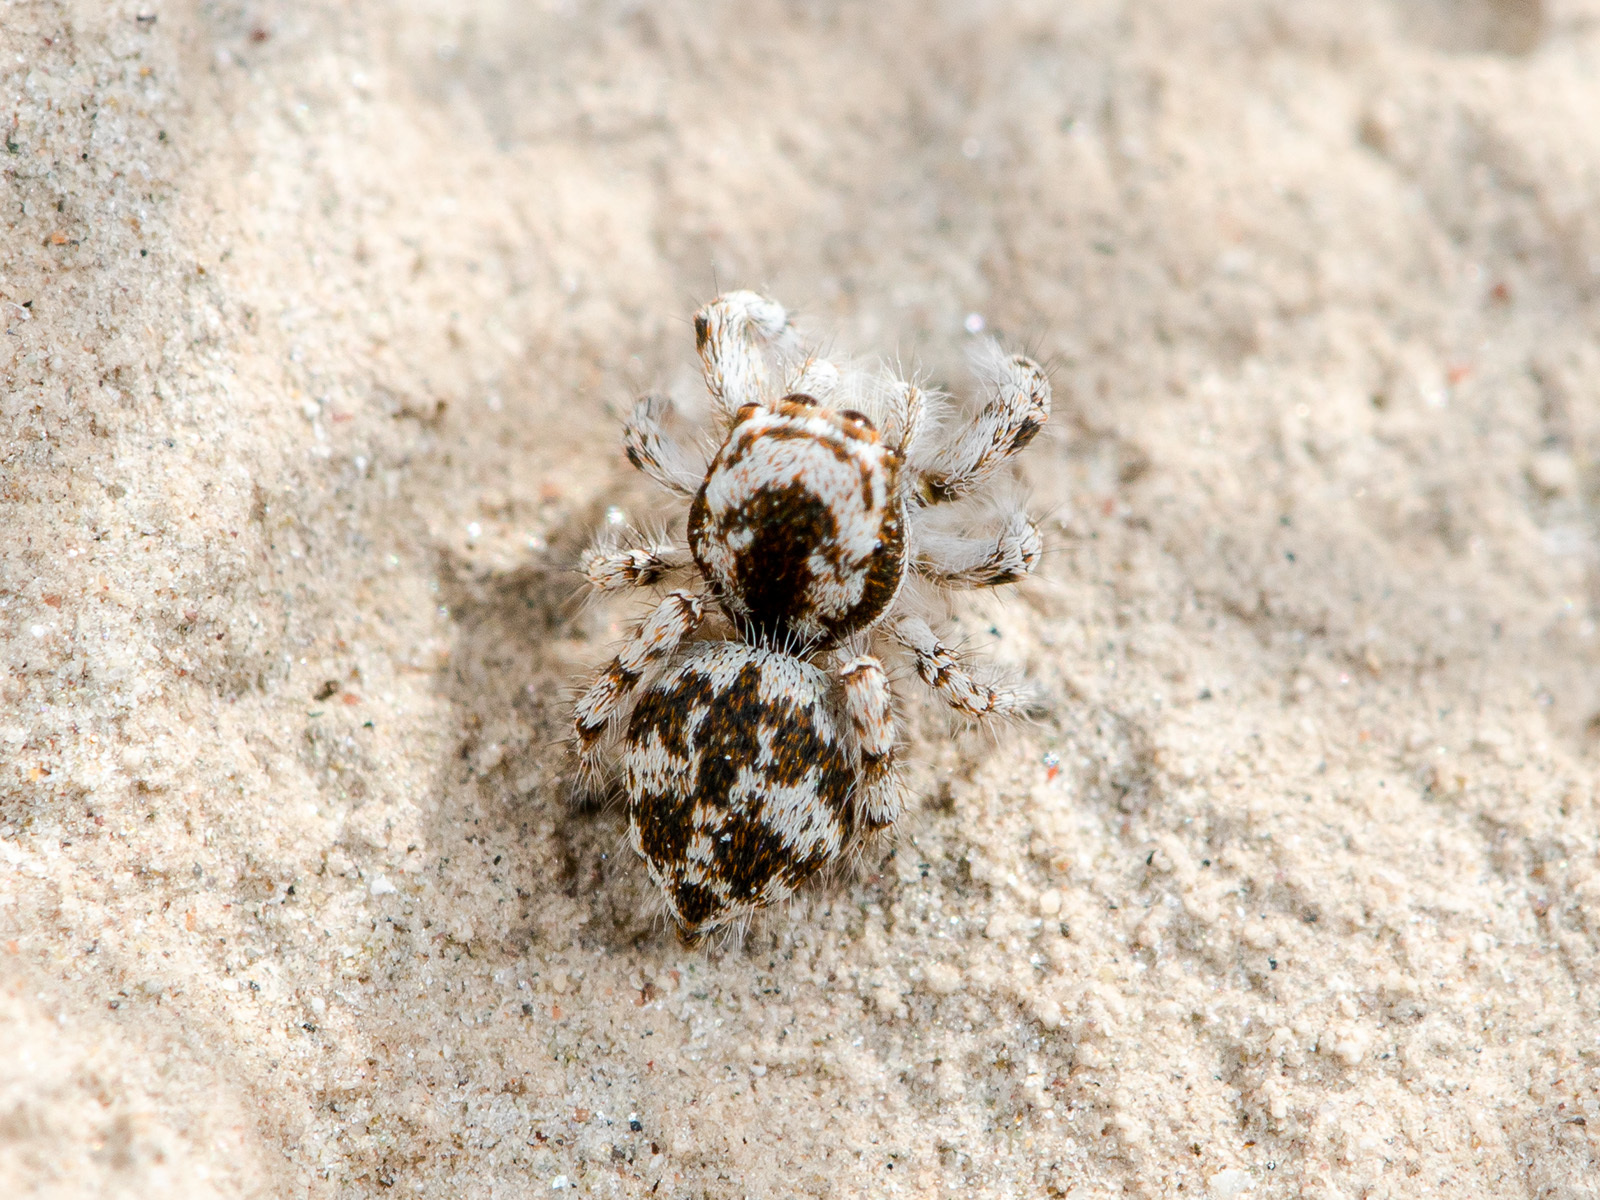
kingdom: Animalia
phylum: Arthropoda
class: Arachnida
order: Araneae
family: Salticidae
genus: Pseudomogrus
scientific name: Pseudomogrus dalaensis
